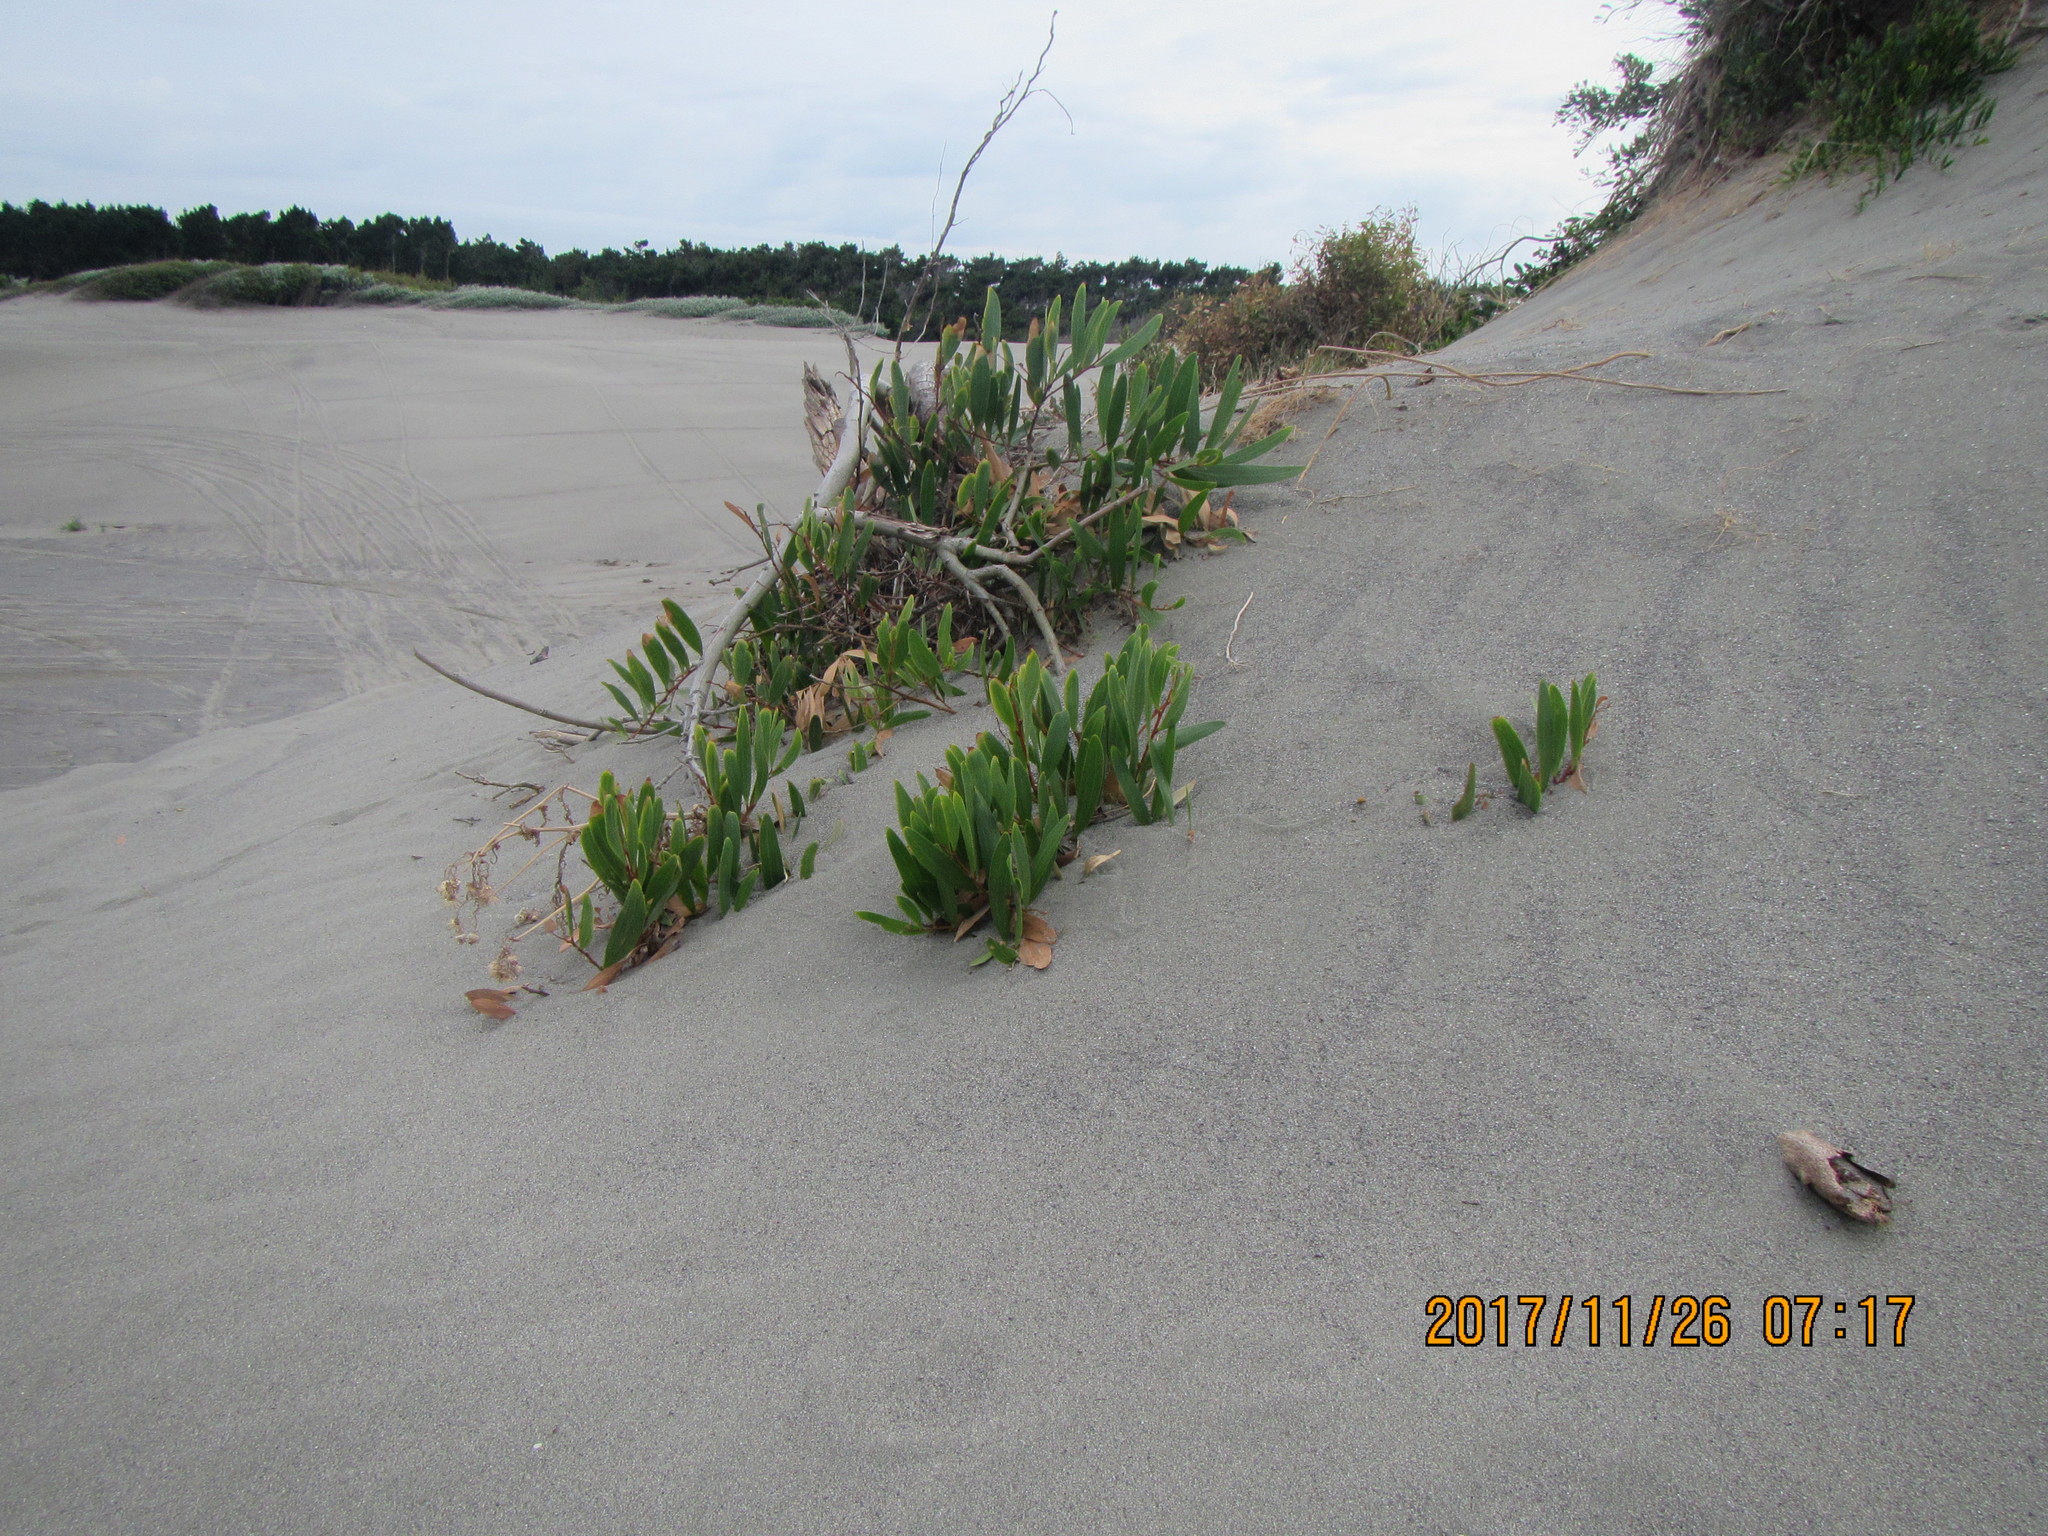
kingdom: Plantae
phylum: Tracheophyta
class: Magnoliopsida
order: Fabales
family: Fabaceae
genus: Acacia
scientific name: Acacia longifolia
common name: Sydney golden wattle
